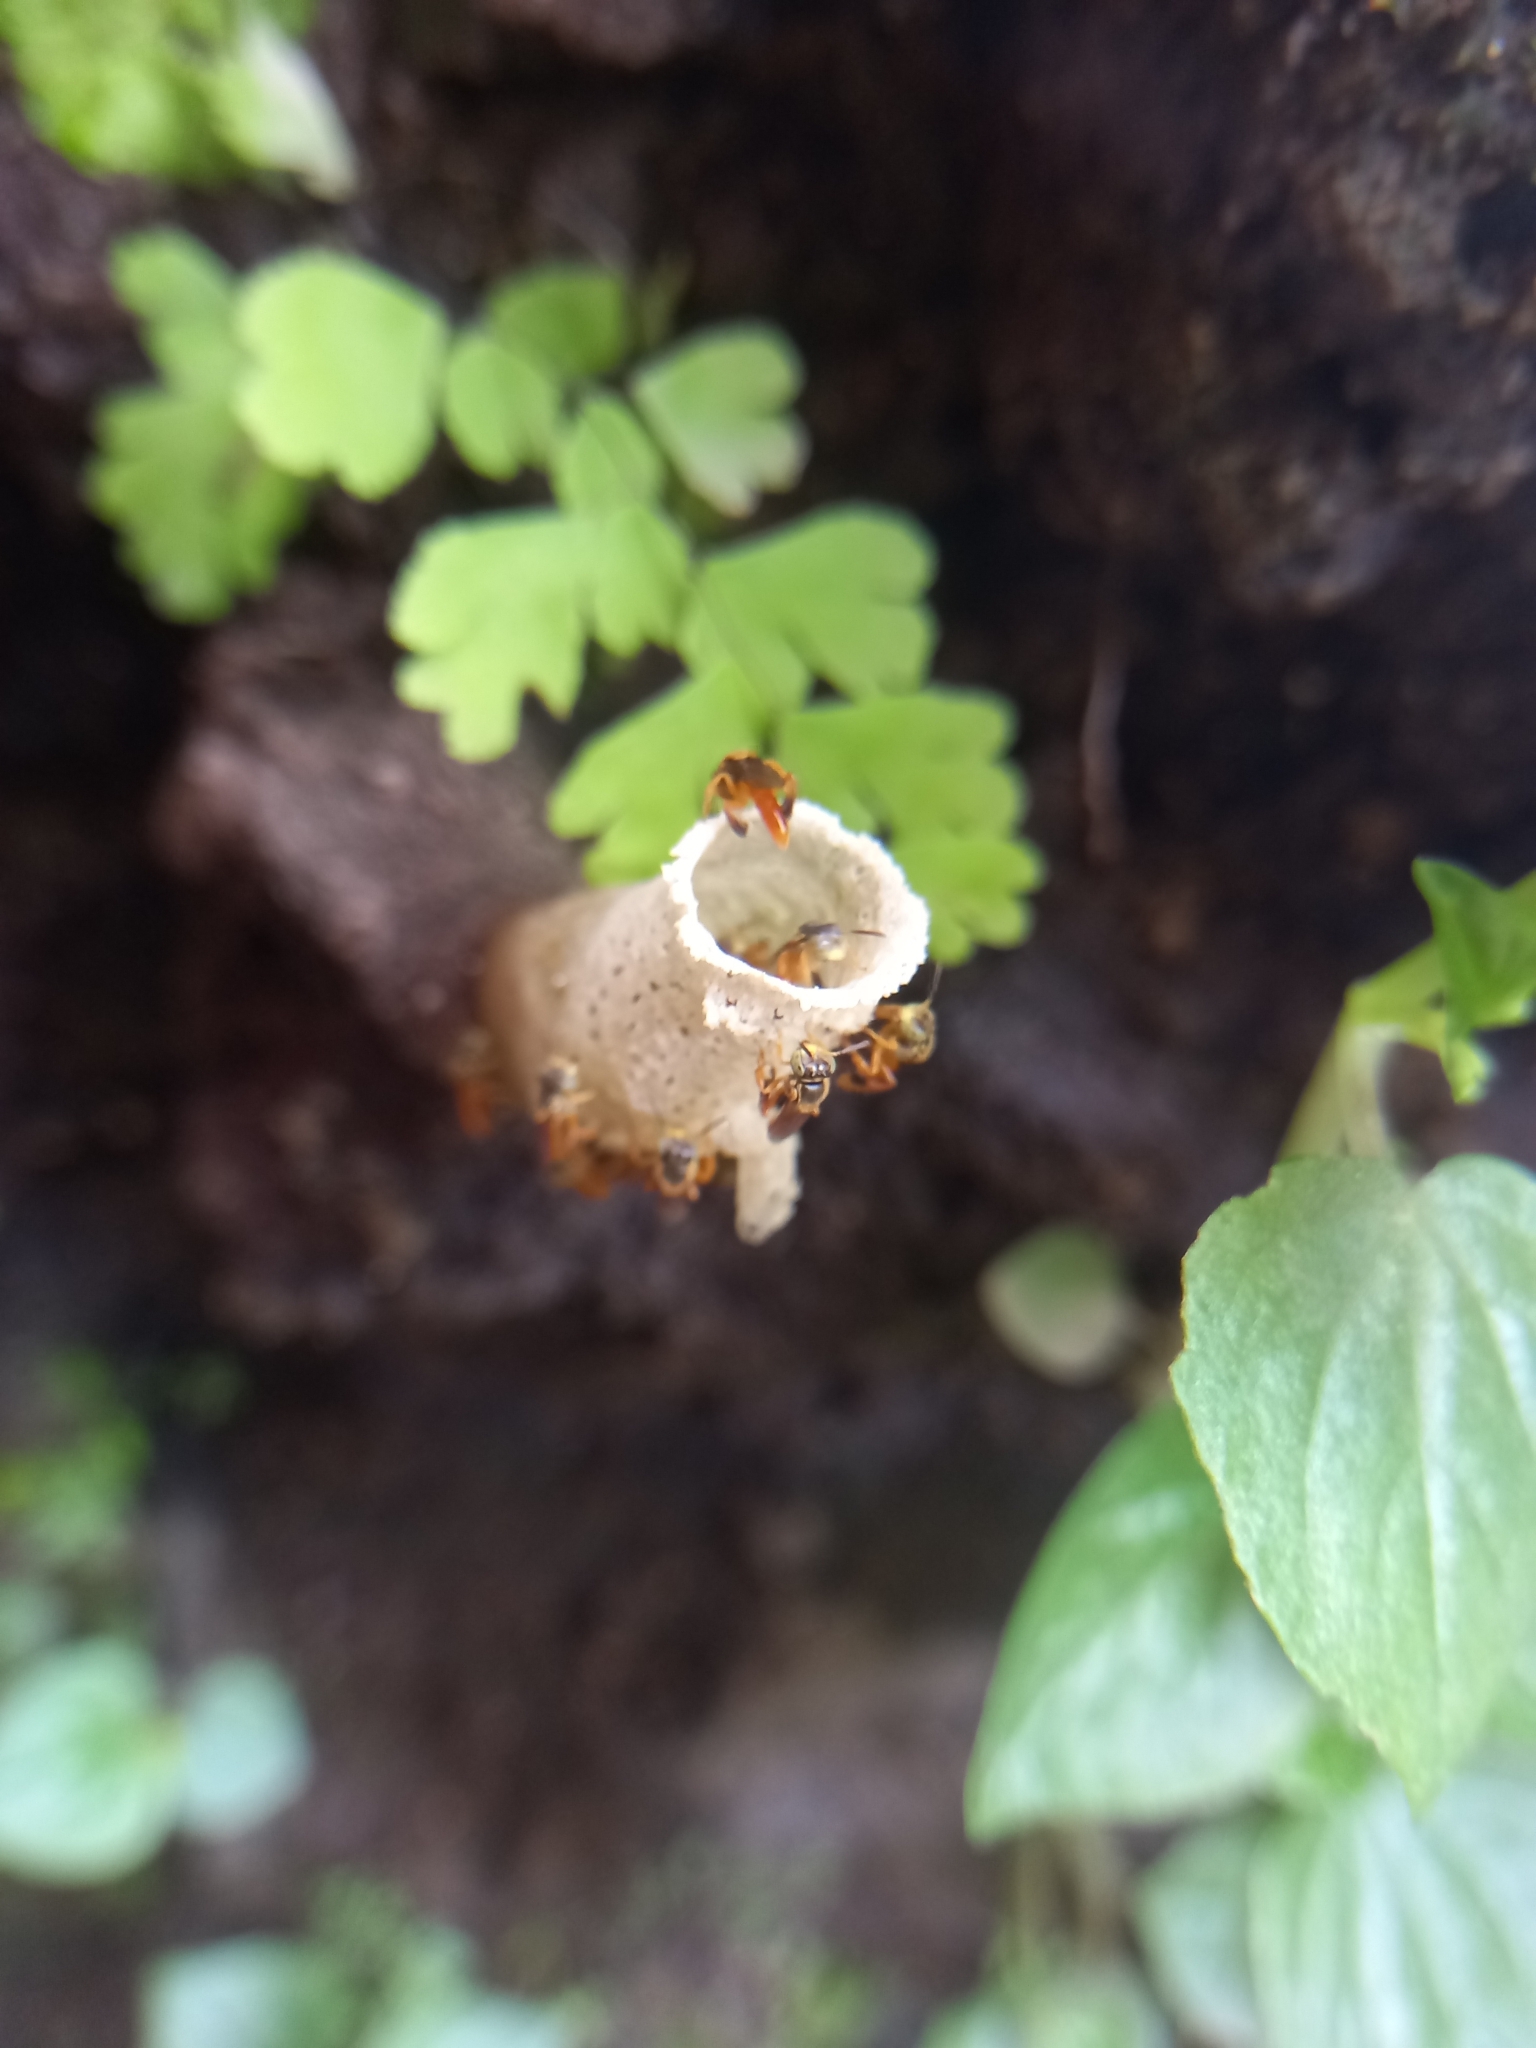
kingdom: Animalia
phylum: Arthropoda
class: Insecta
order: Hymenoptera
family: Apidae
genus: Tetragonisca
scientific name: Tetragonisca angustula
